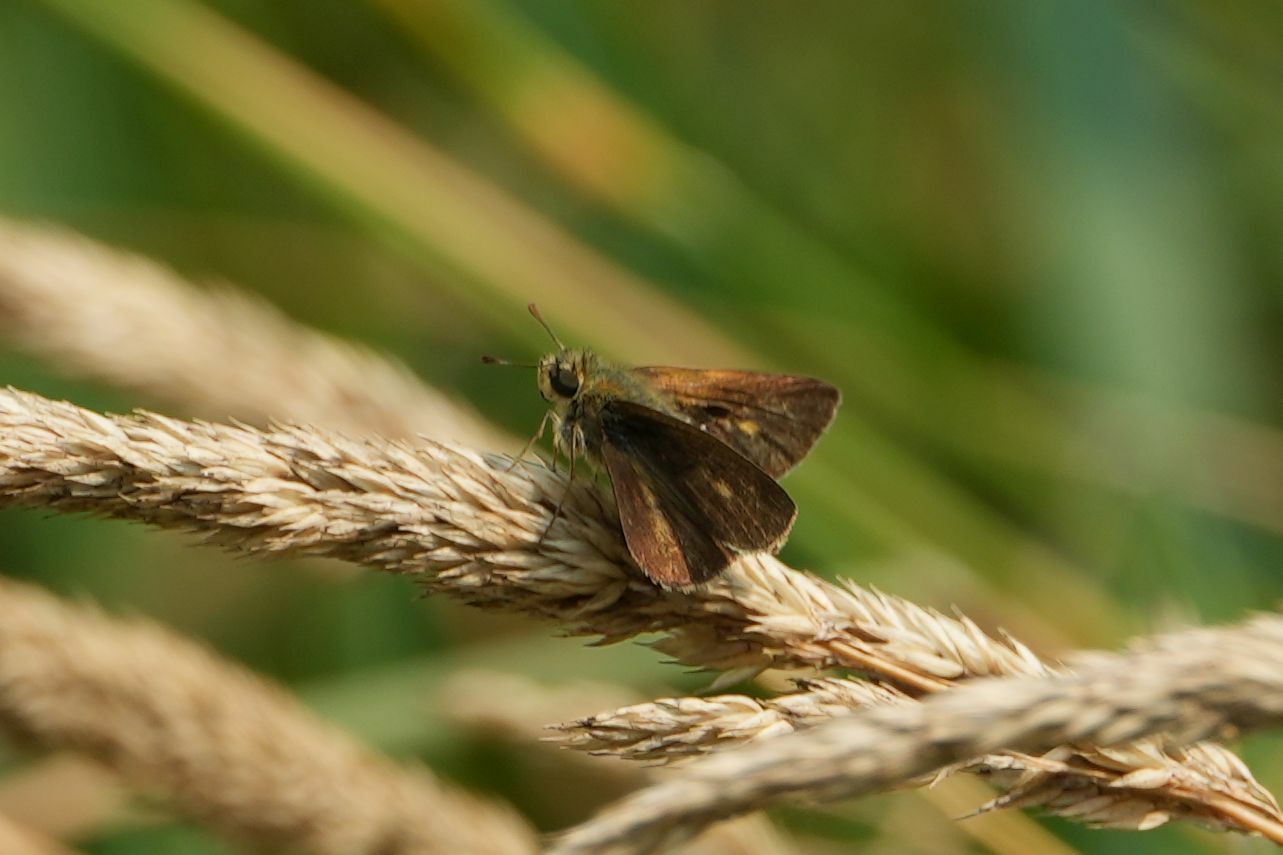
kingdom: Animalia
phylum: Arthropoda
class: Insecta
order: Lepidoptera
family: Hesperiidae
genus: Polites
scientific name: Polites egeremet
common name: Northern broken-dash
